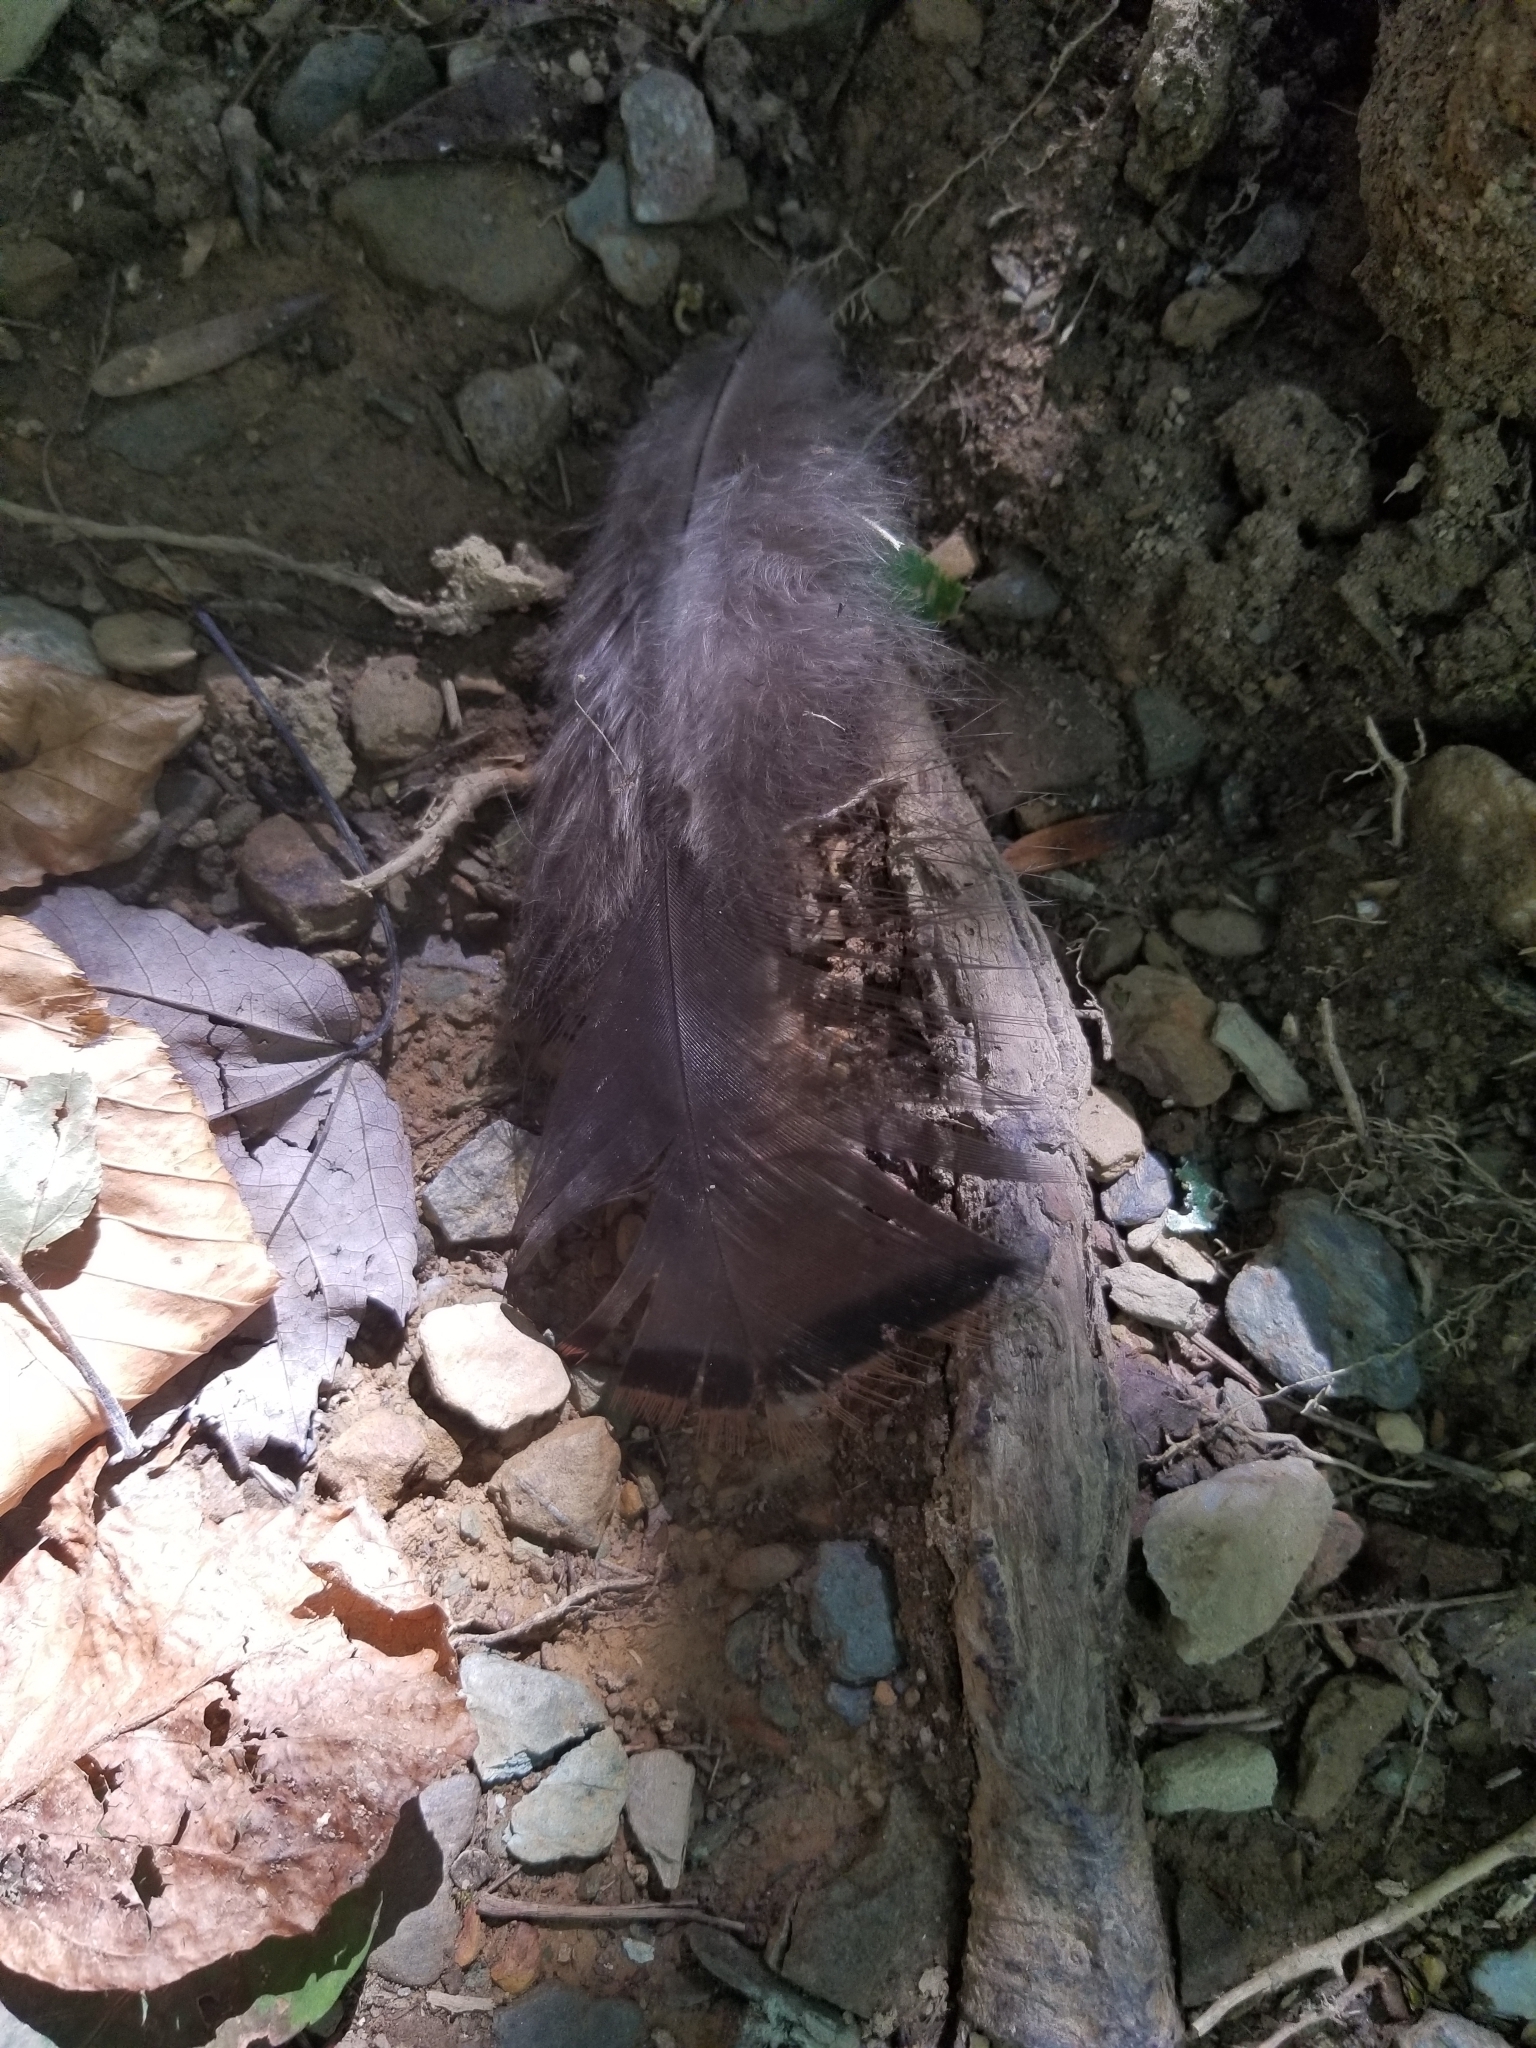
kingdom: Animalia
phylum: Chordata
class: Aves
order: Galliformes
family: Phasianidae
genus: Meleagris
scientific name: Meleagris gallopavo
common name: Wild turkey
